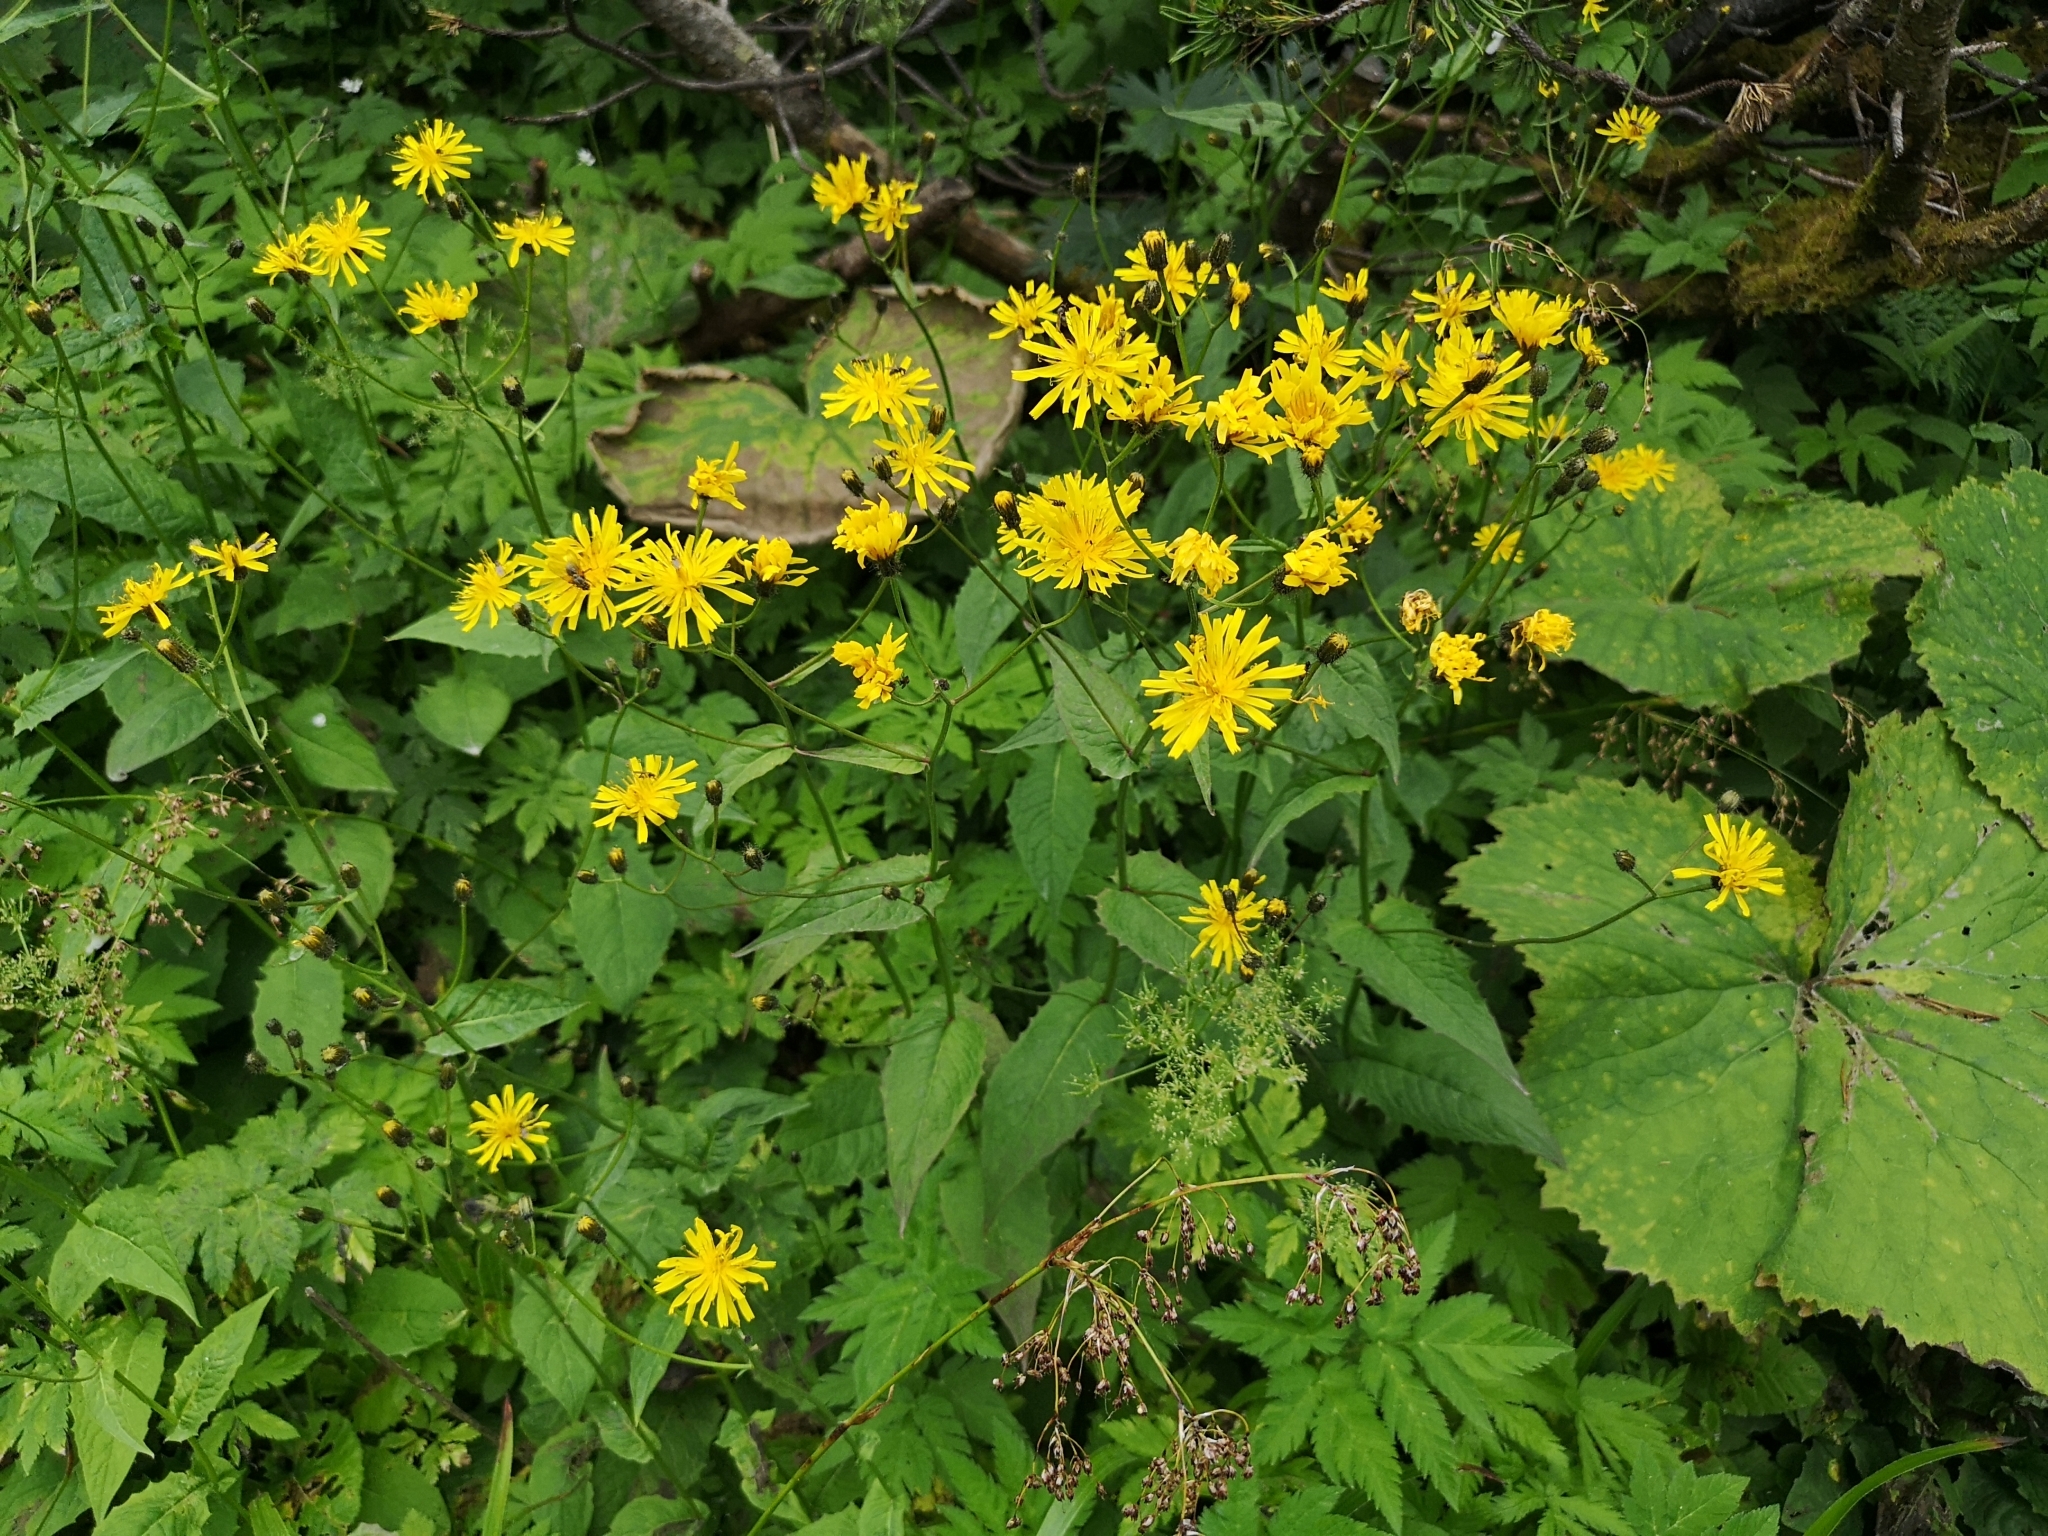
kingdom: Plantae
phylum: Tracheophyta
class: Magnoliopsida
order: Asterales
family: Asteraceae
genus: Crepis
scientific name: Crepis paludosa
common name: Marsh hawk's-beard
